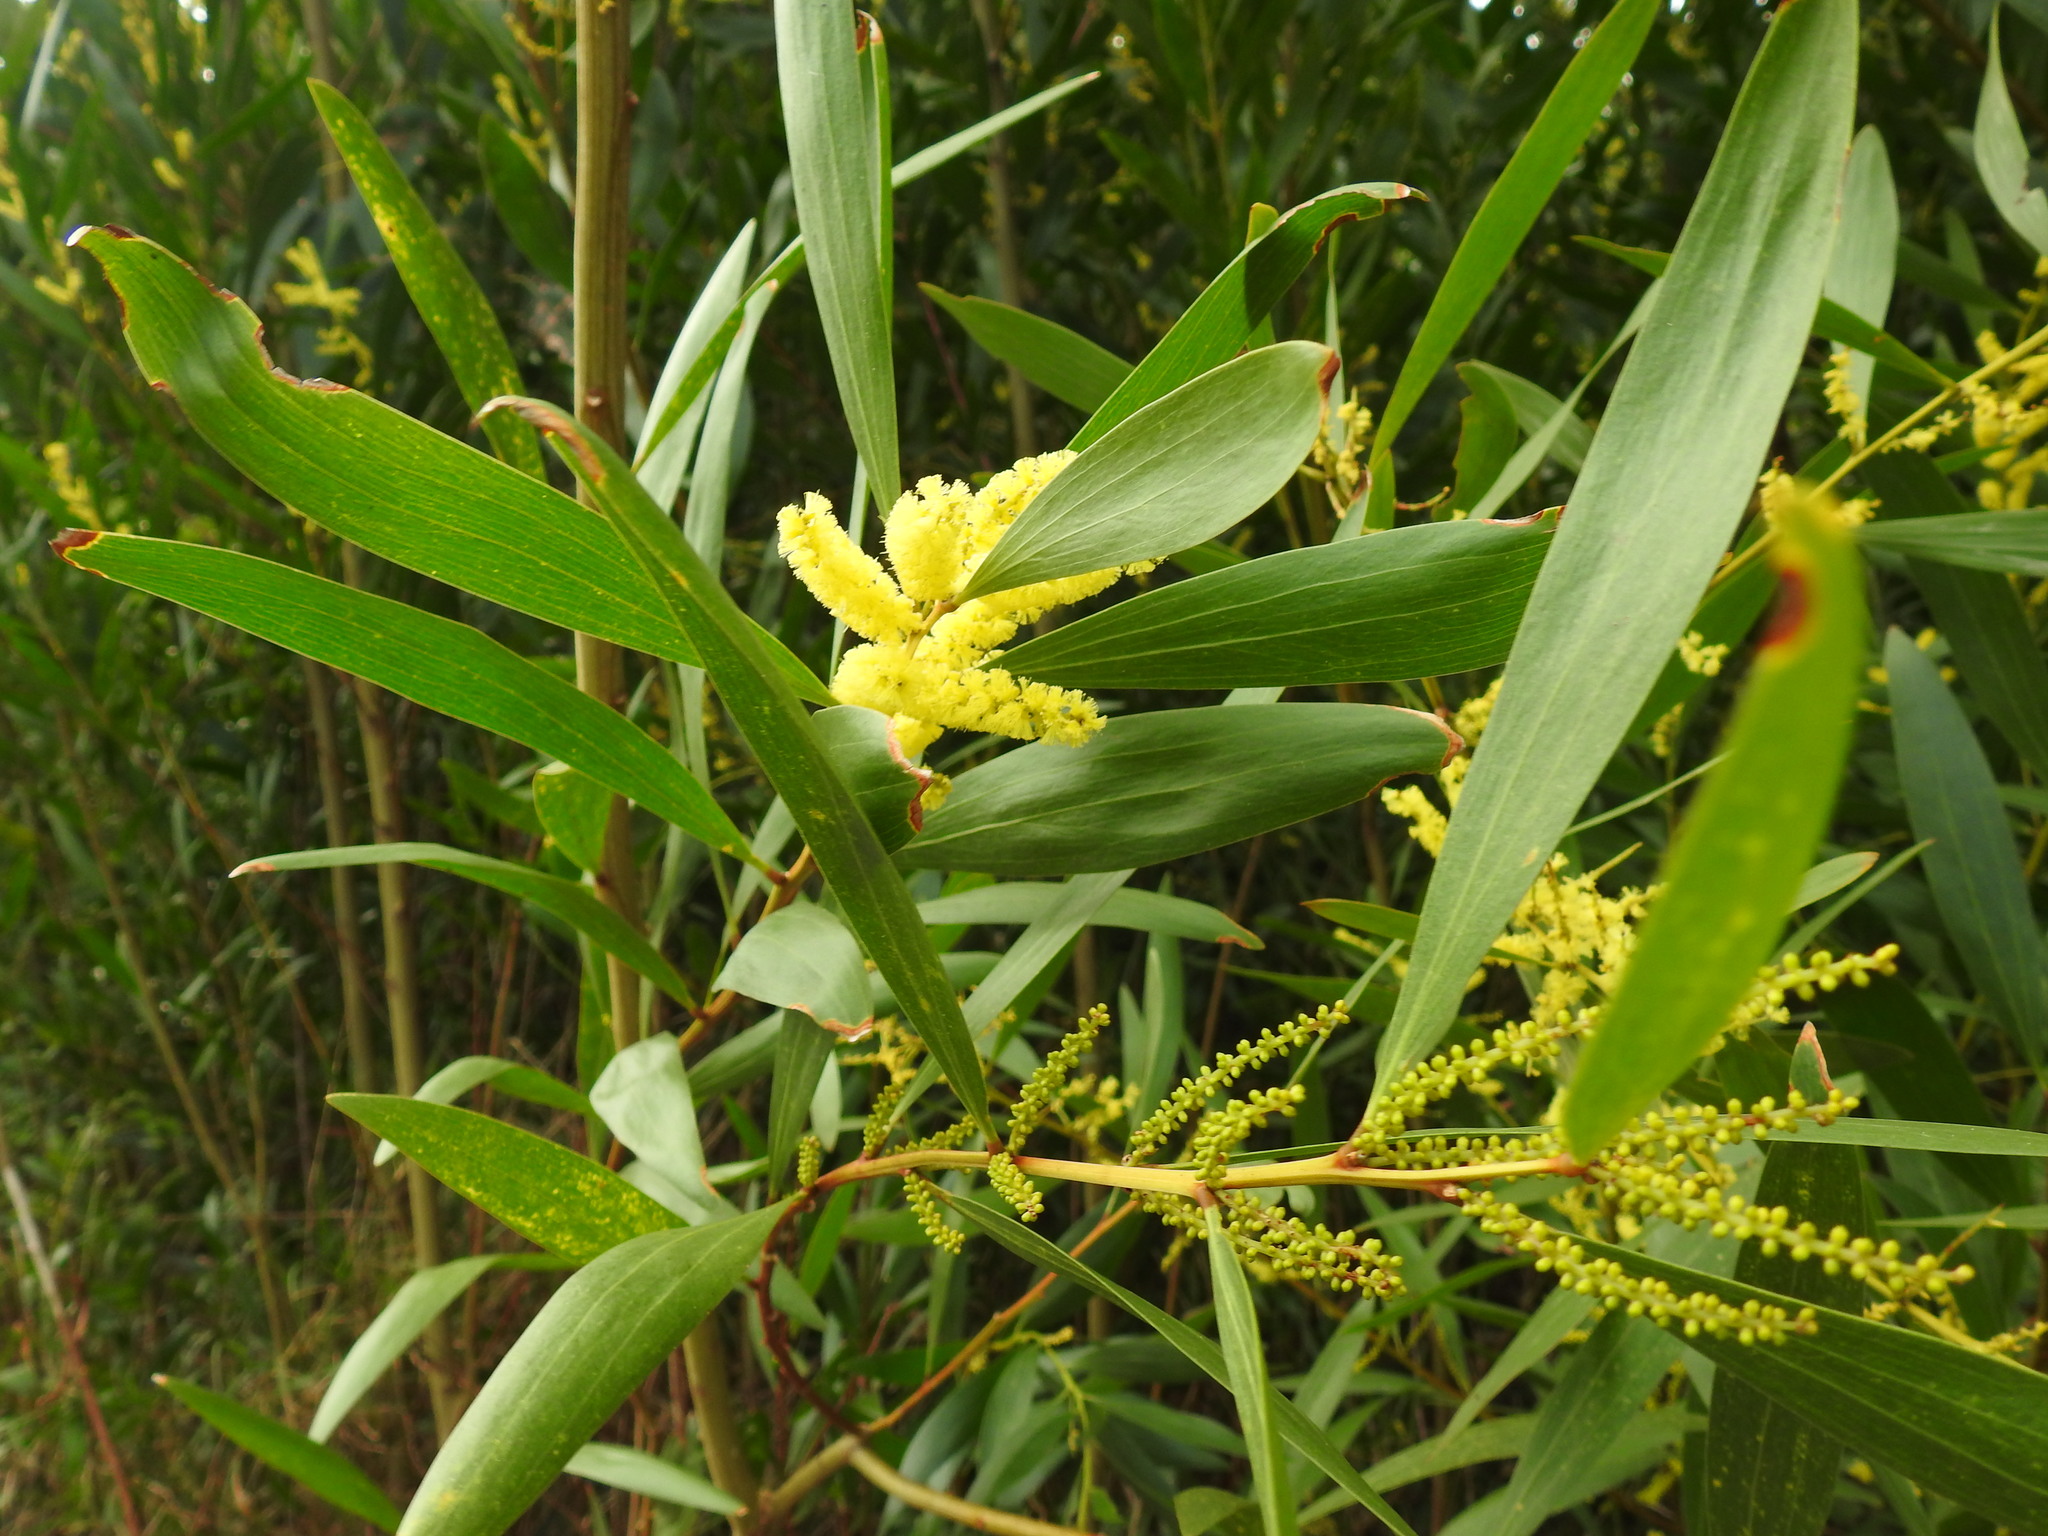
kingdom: Plantae
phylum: Tracheophyta
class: Magnoliopsida
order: Fabales
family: Fabaceae
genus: Acacia
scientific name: Acacia longifolia
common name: Sydney golden wattle
